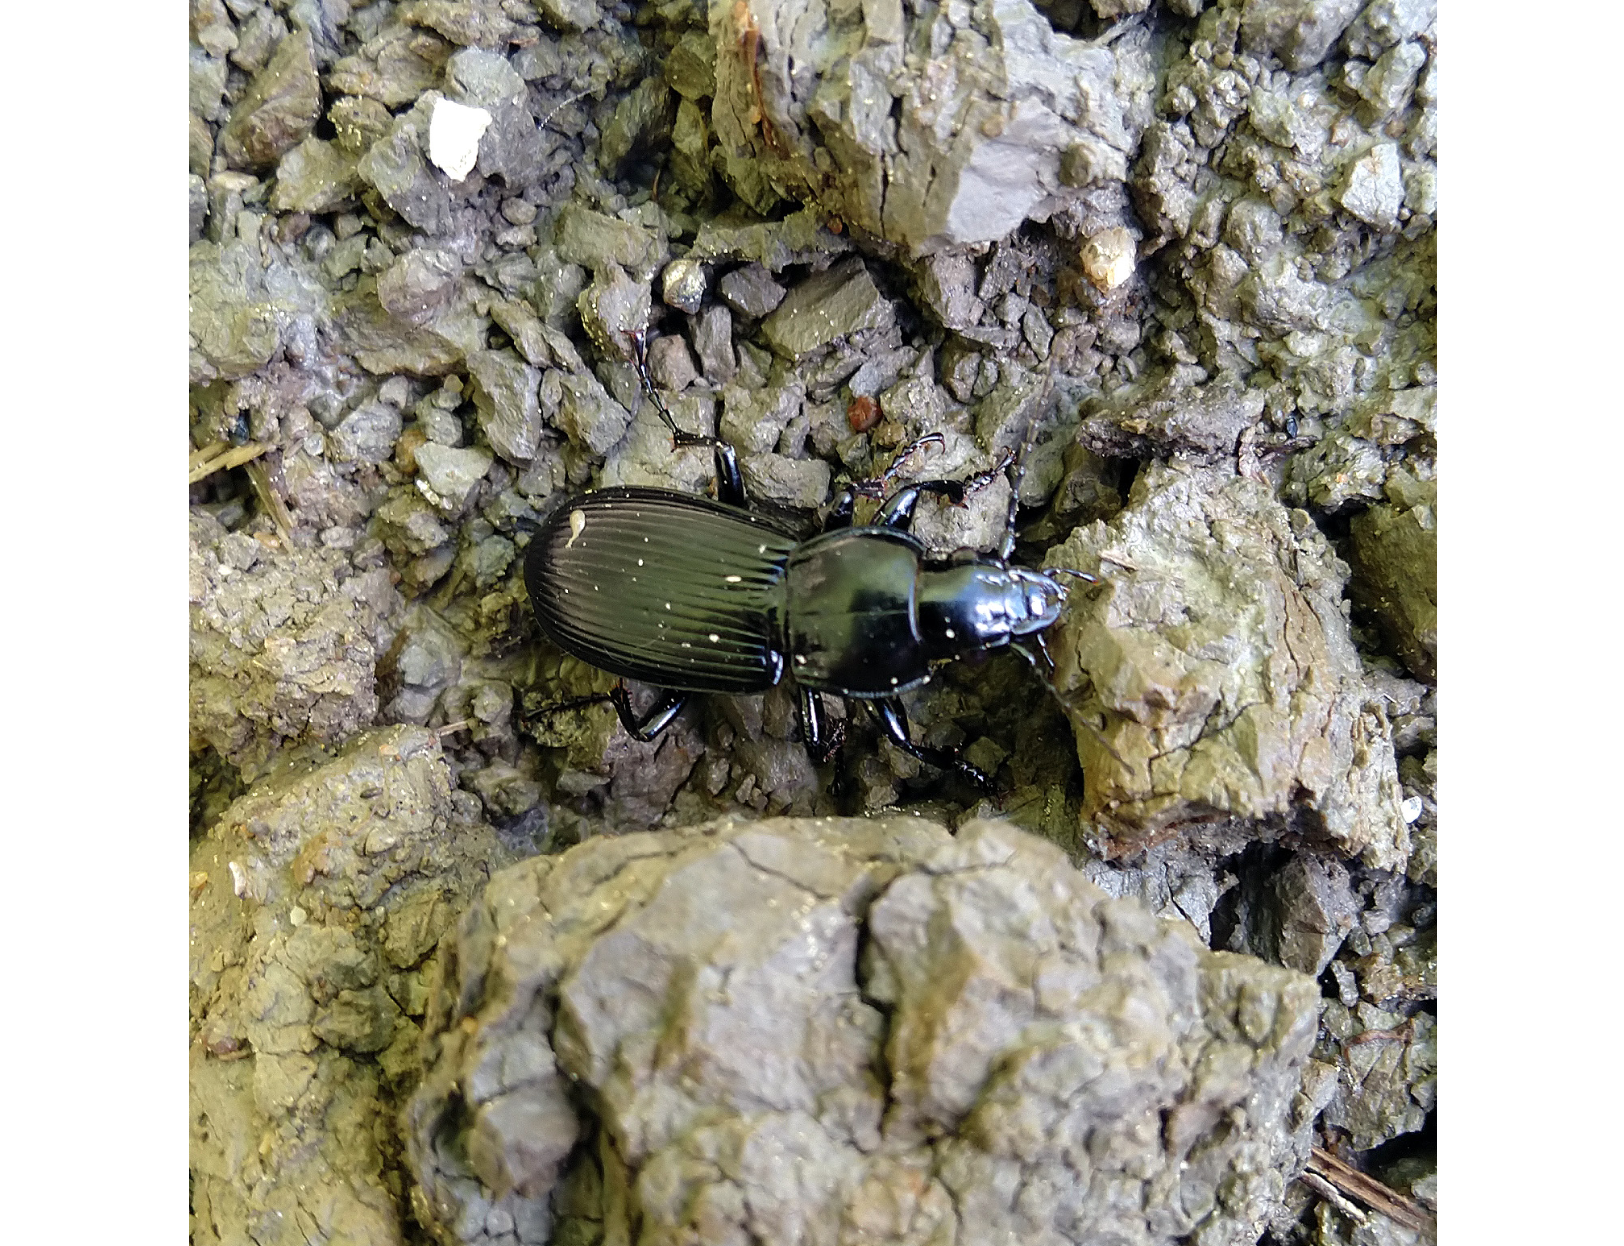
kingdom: Animalia
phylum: Arthropoda
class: Insecta
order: Coleoptera
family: Carabidae
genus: Pterostichus
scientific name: Pterostichus melanarius
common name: European dark harp ground beetle
